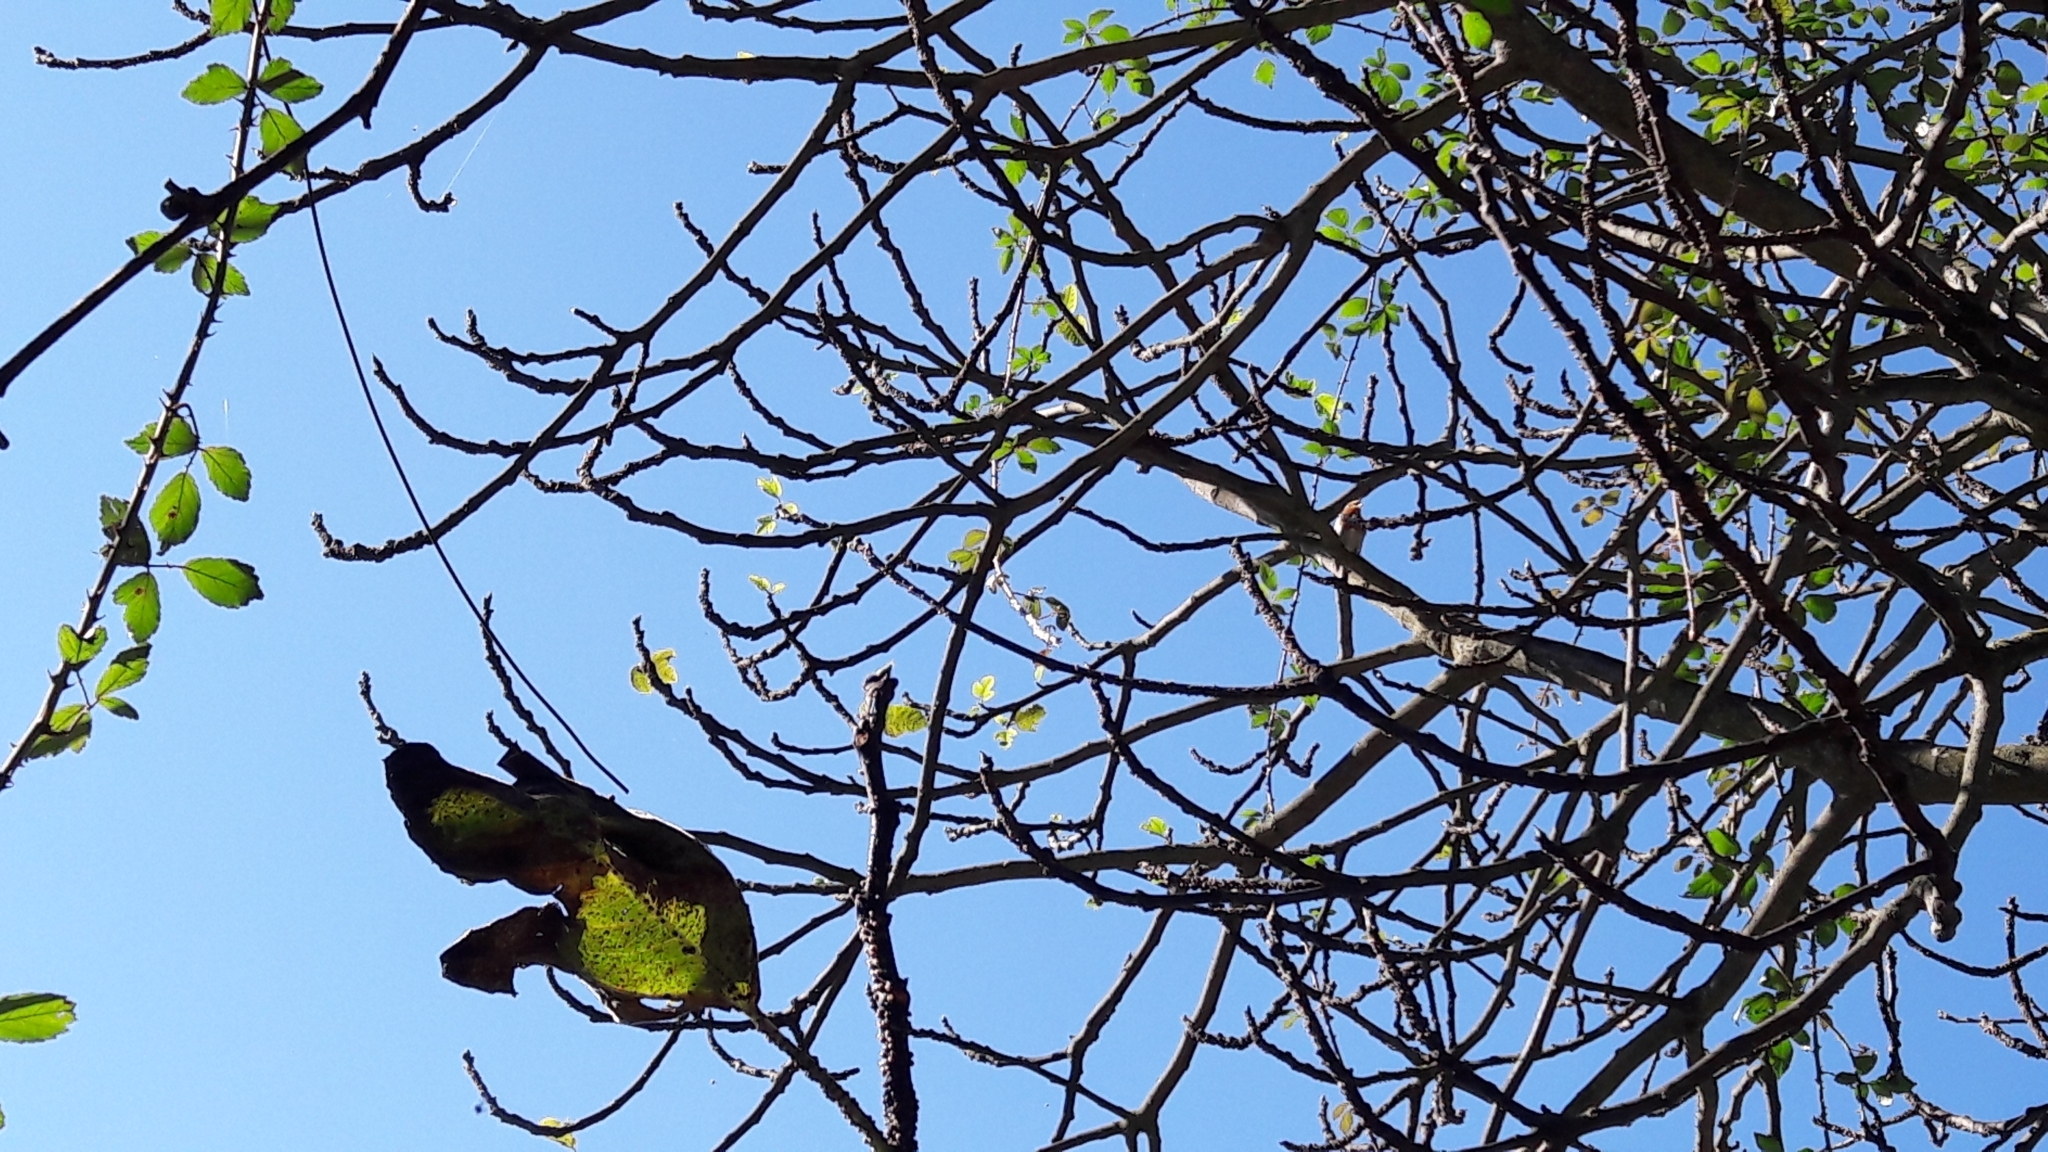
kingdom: Animalia
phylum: Chordata
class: Aves
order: Passeriformes
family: Muscicapidae
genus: Erithacus
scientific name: Erithacus rubecula
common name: European robin
